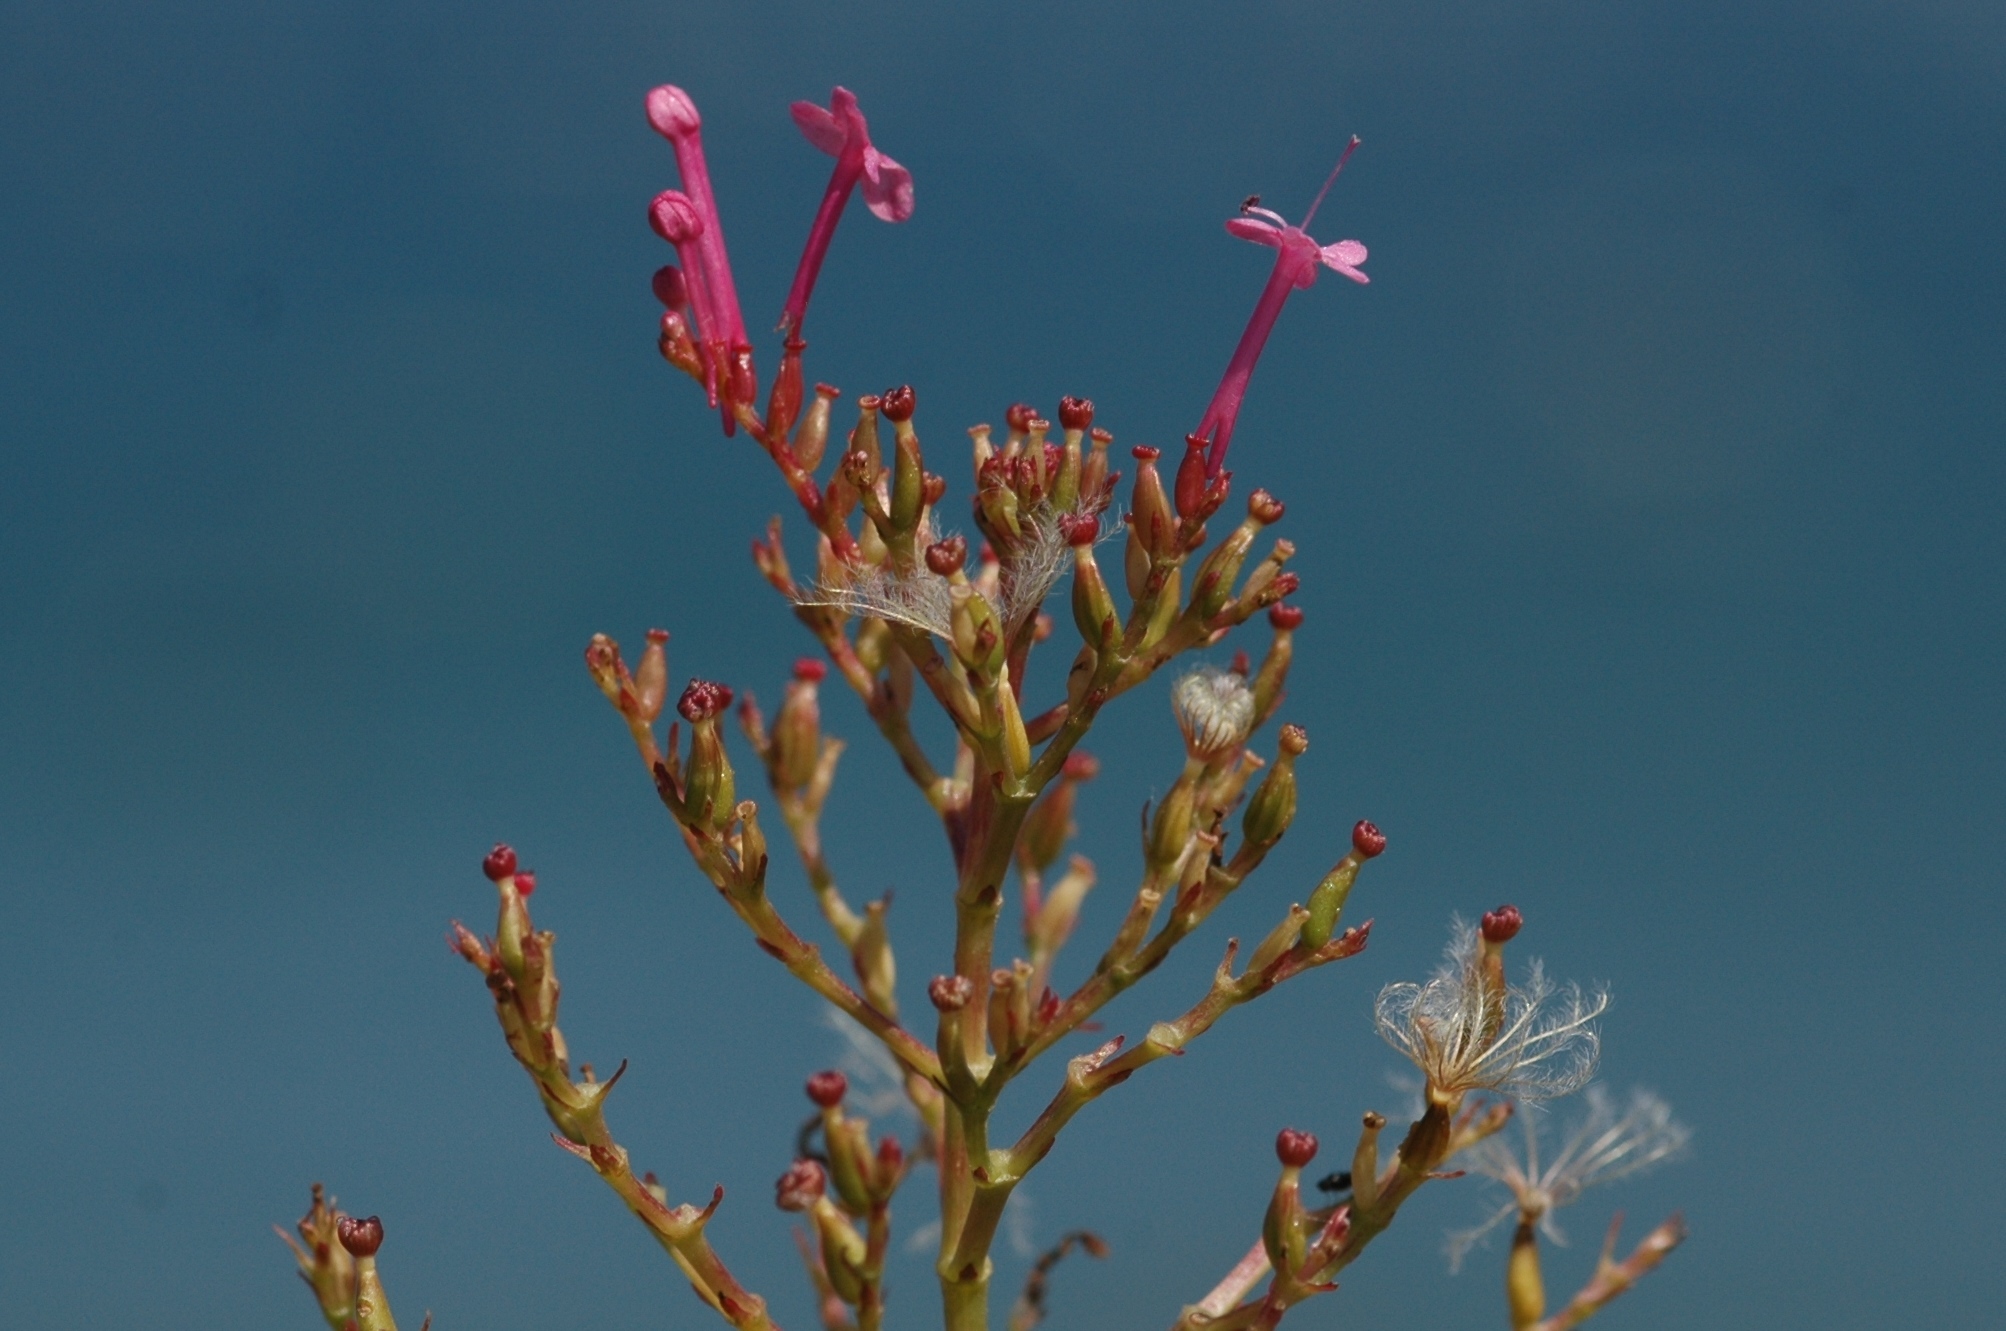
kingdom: Plantae
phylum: Tracheophyta
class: Magnoliopsida
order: Dipsacales
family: Caprifoliaceae
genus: Centranthus
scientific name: Centranthus ruber
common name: Red valerian
